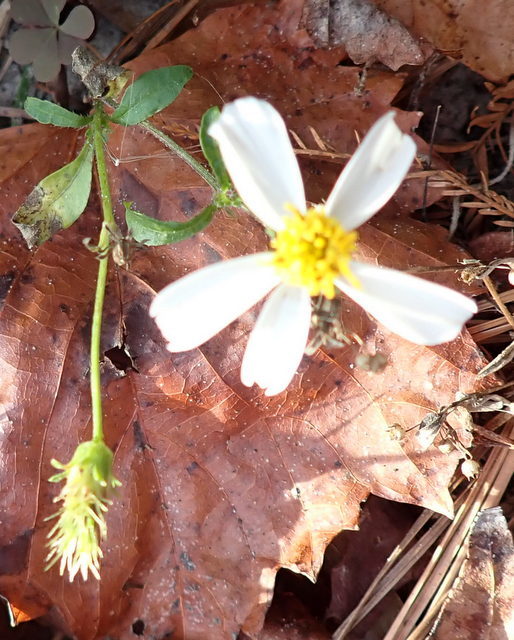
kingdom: Plantae
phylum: Tracheophyta
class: Magnoliopsida
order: Asterales
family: Asteraceae
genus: Bidens
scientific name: Bidens alba
